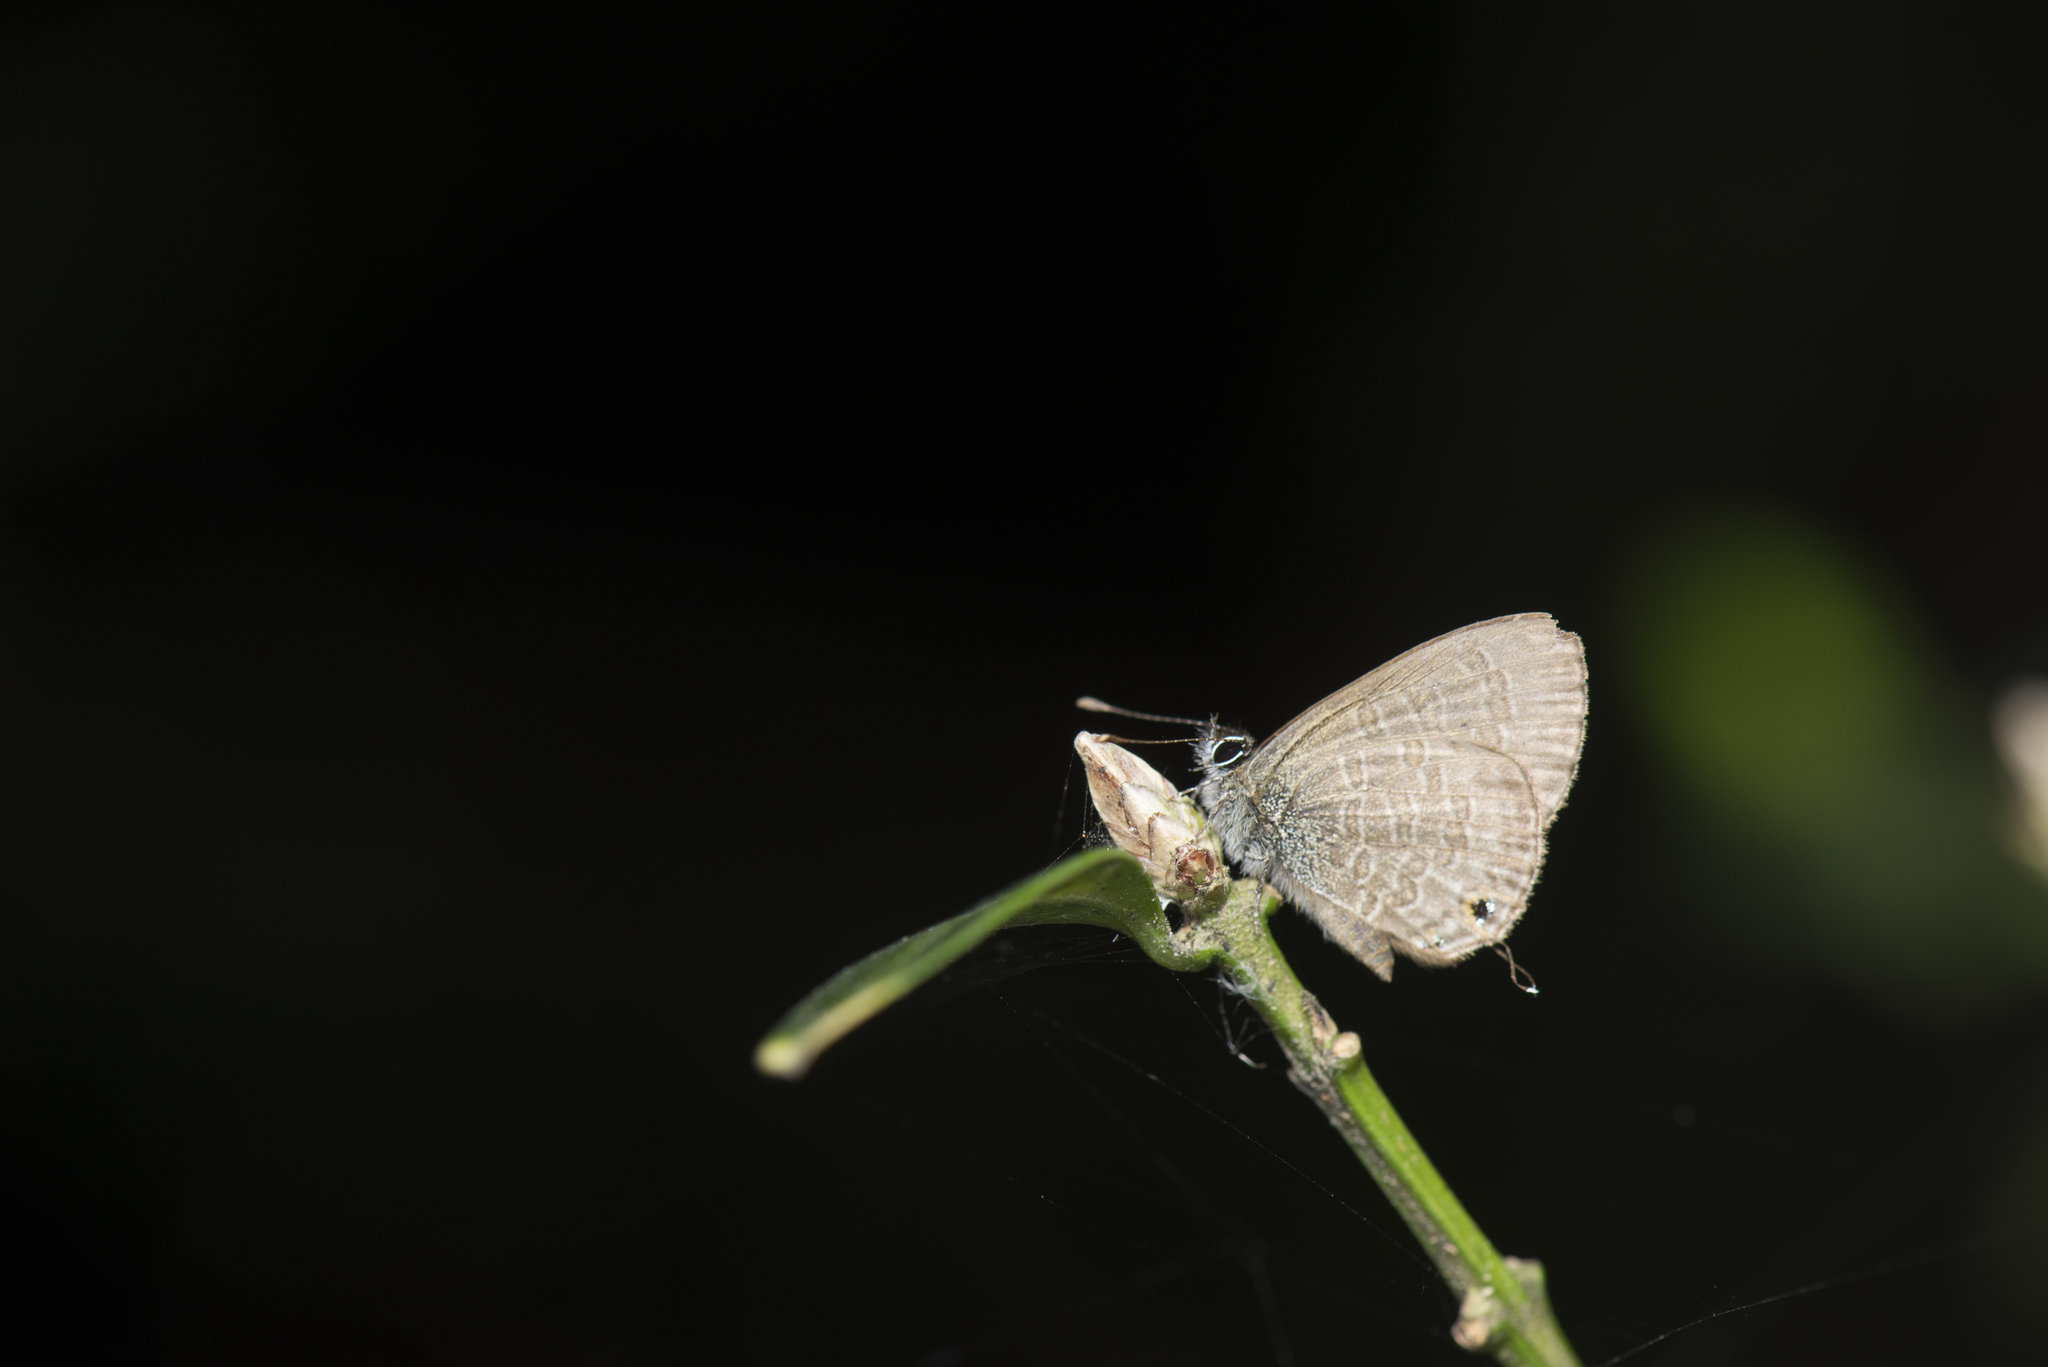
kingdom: Animalia
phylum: Arthropoda
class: Insecta
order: Lepidoptera
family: Lycaenidae
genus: Prosotas
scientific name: Prosotas nora
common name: Common line blue
